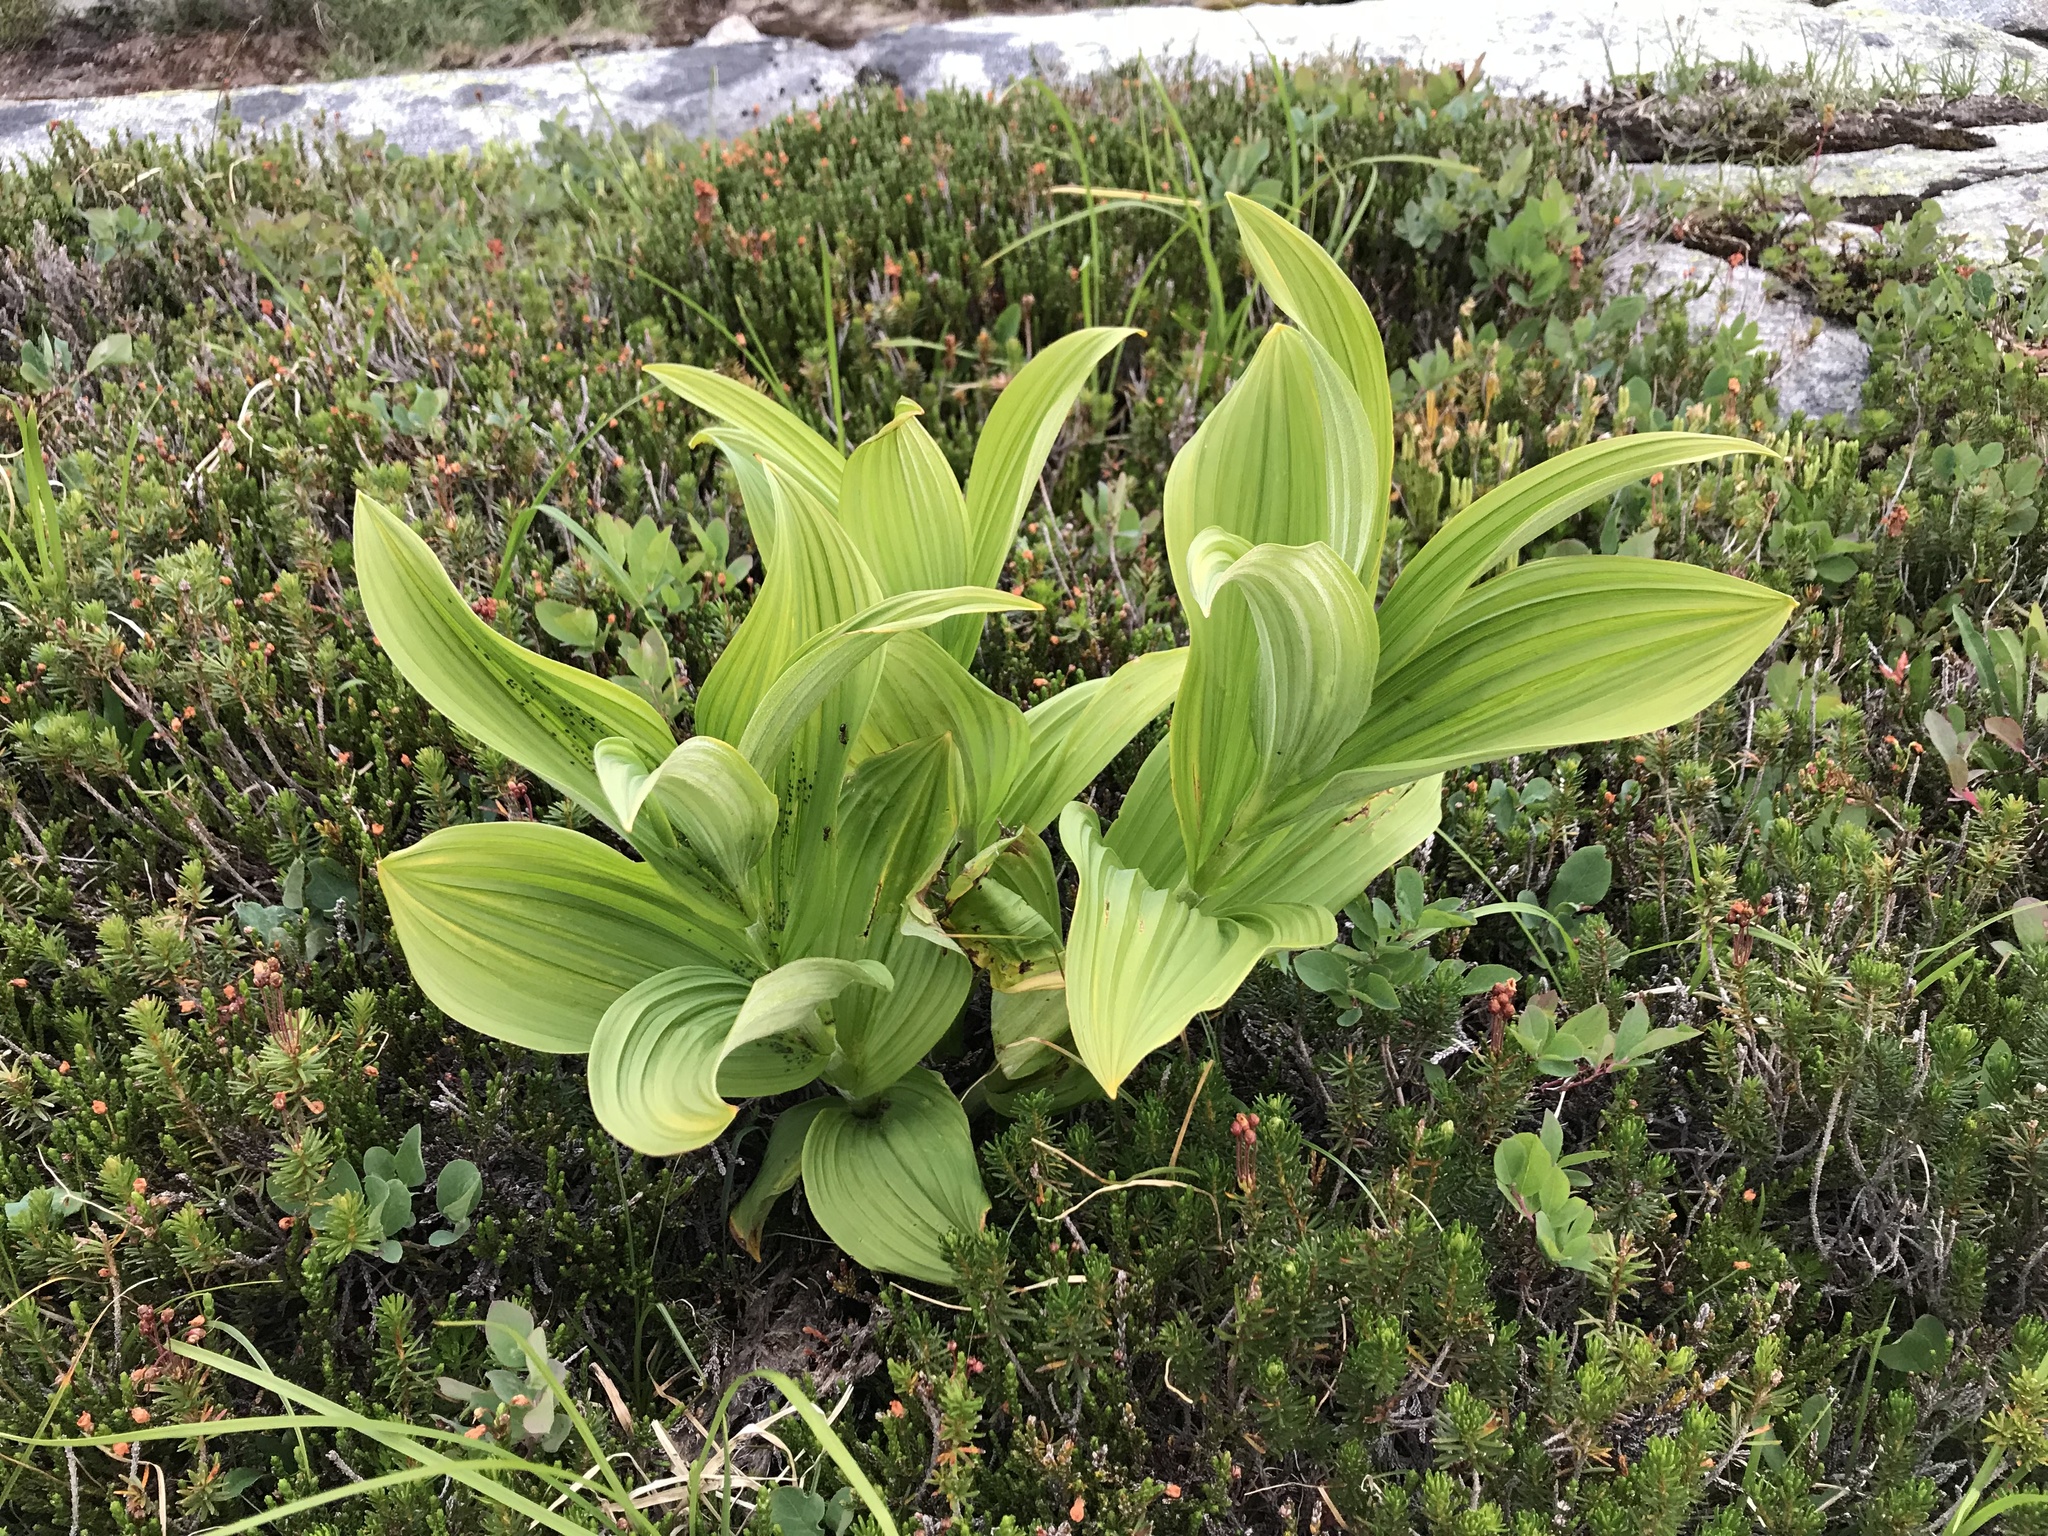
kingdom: Plantae
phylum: Tracheophyta
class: Liliopsida
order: Liliales
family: Melanthiaceae
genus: Veratrum
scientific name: Veratrum viride
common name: American false hellebore
